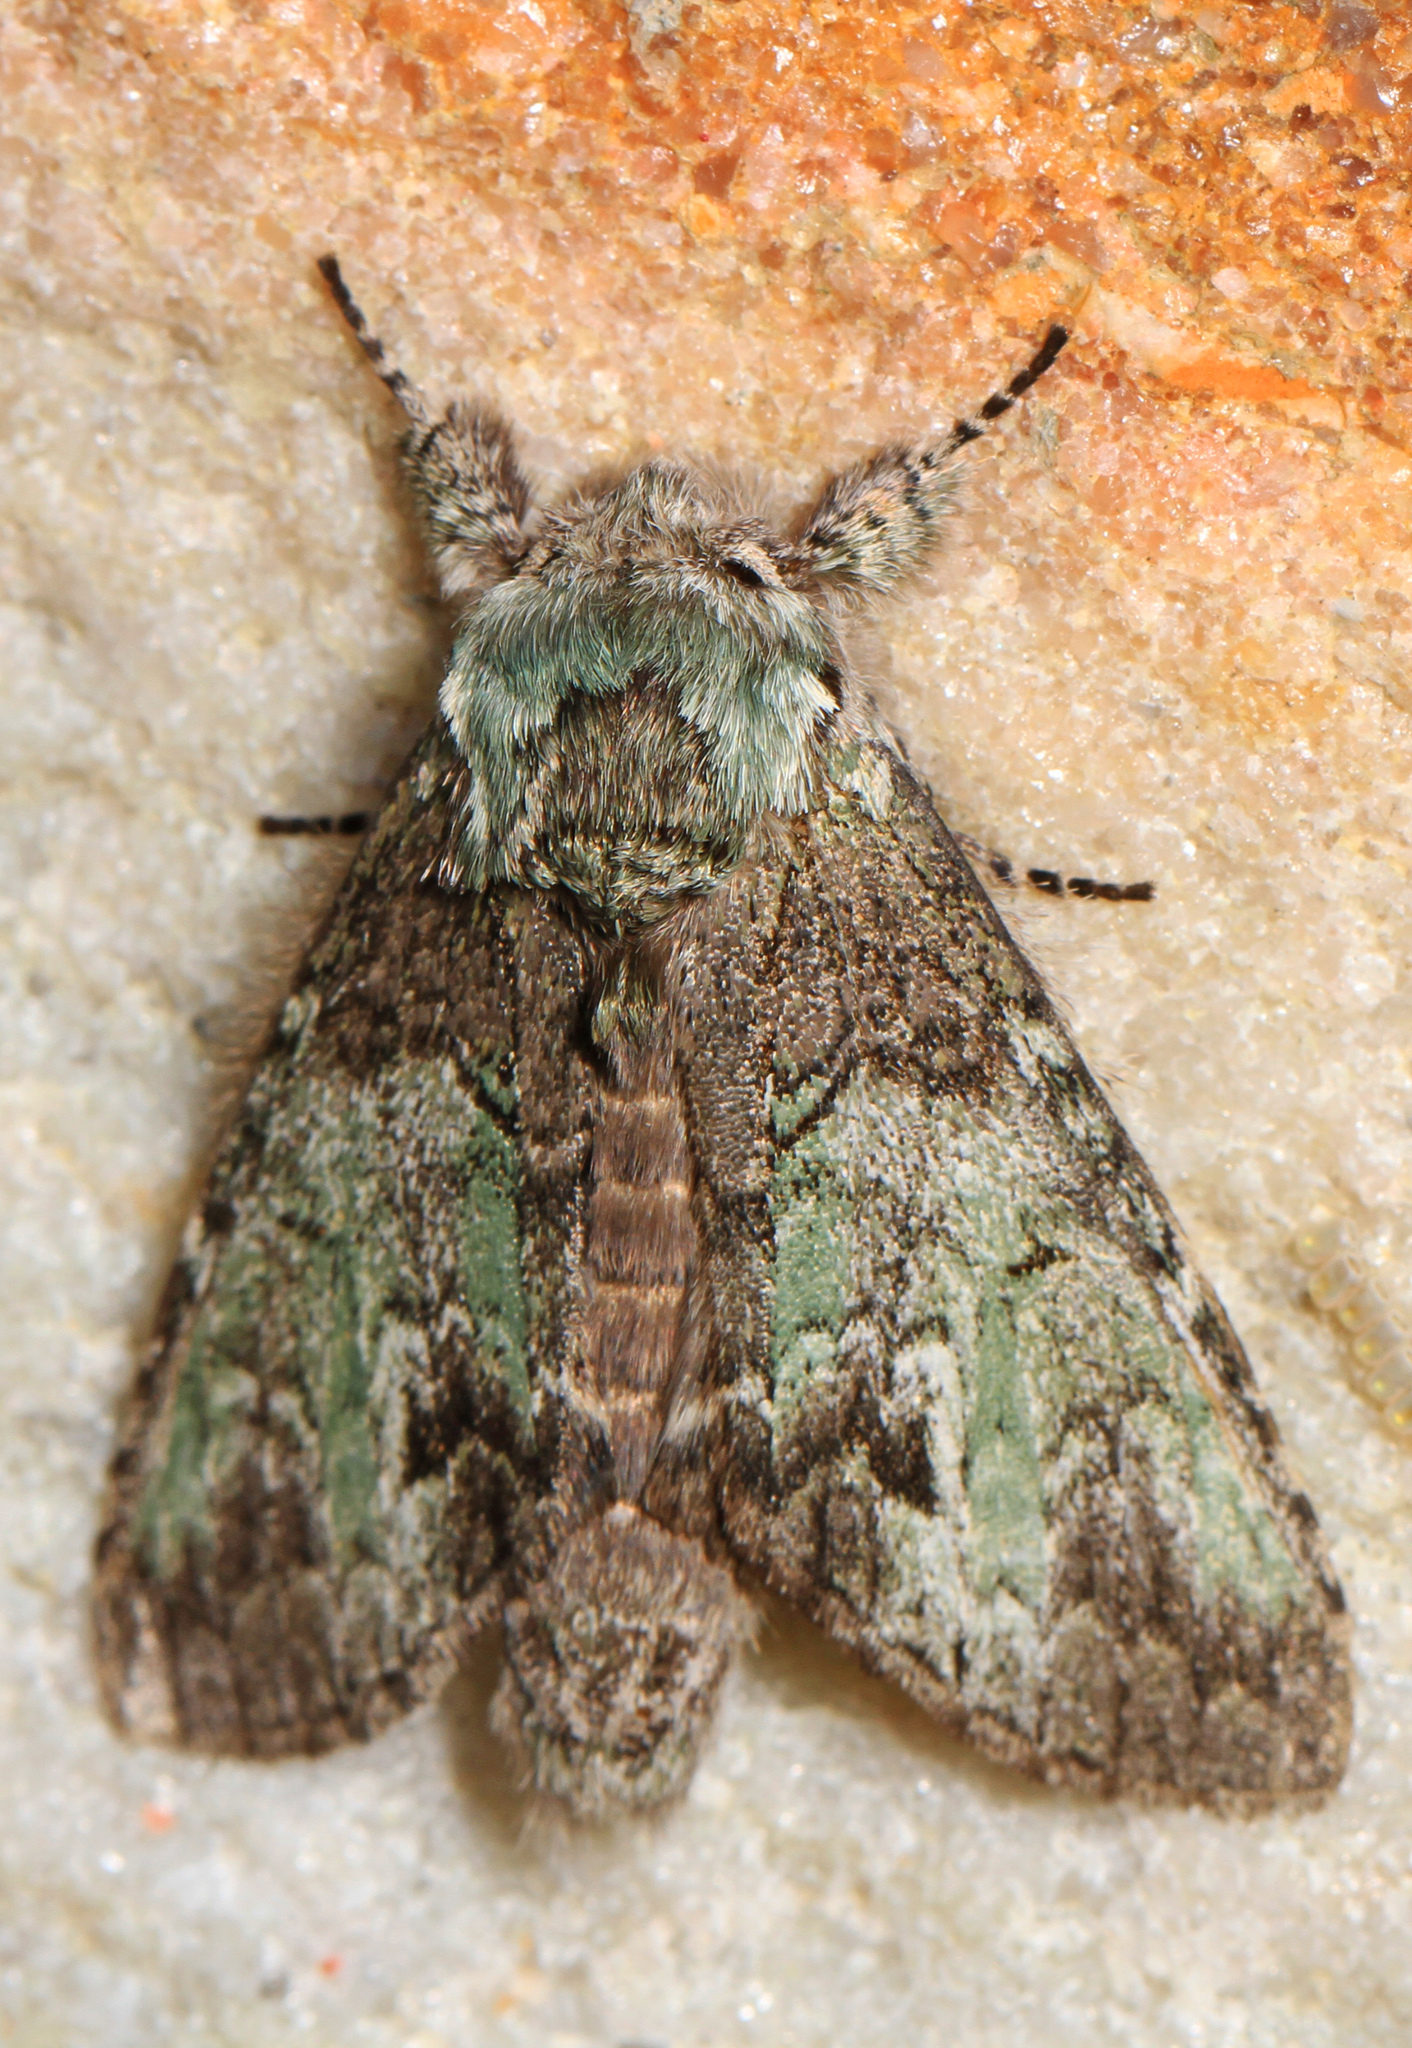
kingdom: Animalia
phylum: Arthropoda
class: Insecta
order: Lepidoptera
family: Notodontidae
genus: Macrurocampa
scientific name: Macrurocampa marthesia
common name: Mottled prominent
